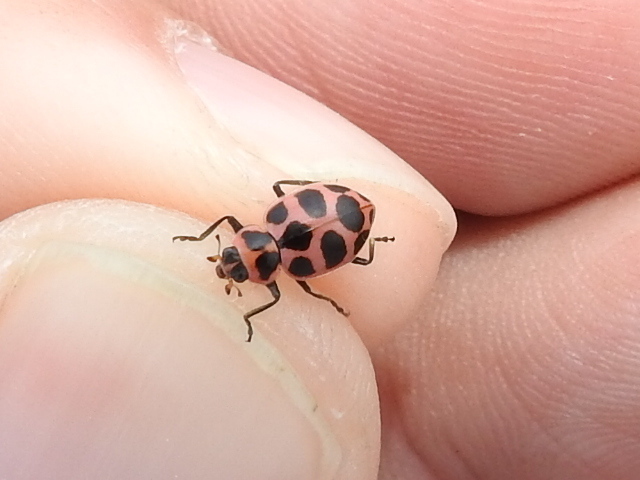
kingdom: Animalia
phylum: Arthropoda
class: Insecta
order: Coleoptera
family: Coccinellidae
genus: Coleomegilla
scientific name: Coleomegilla maculata
